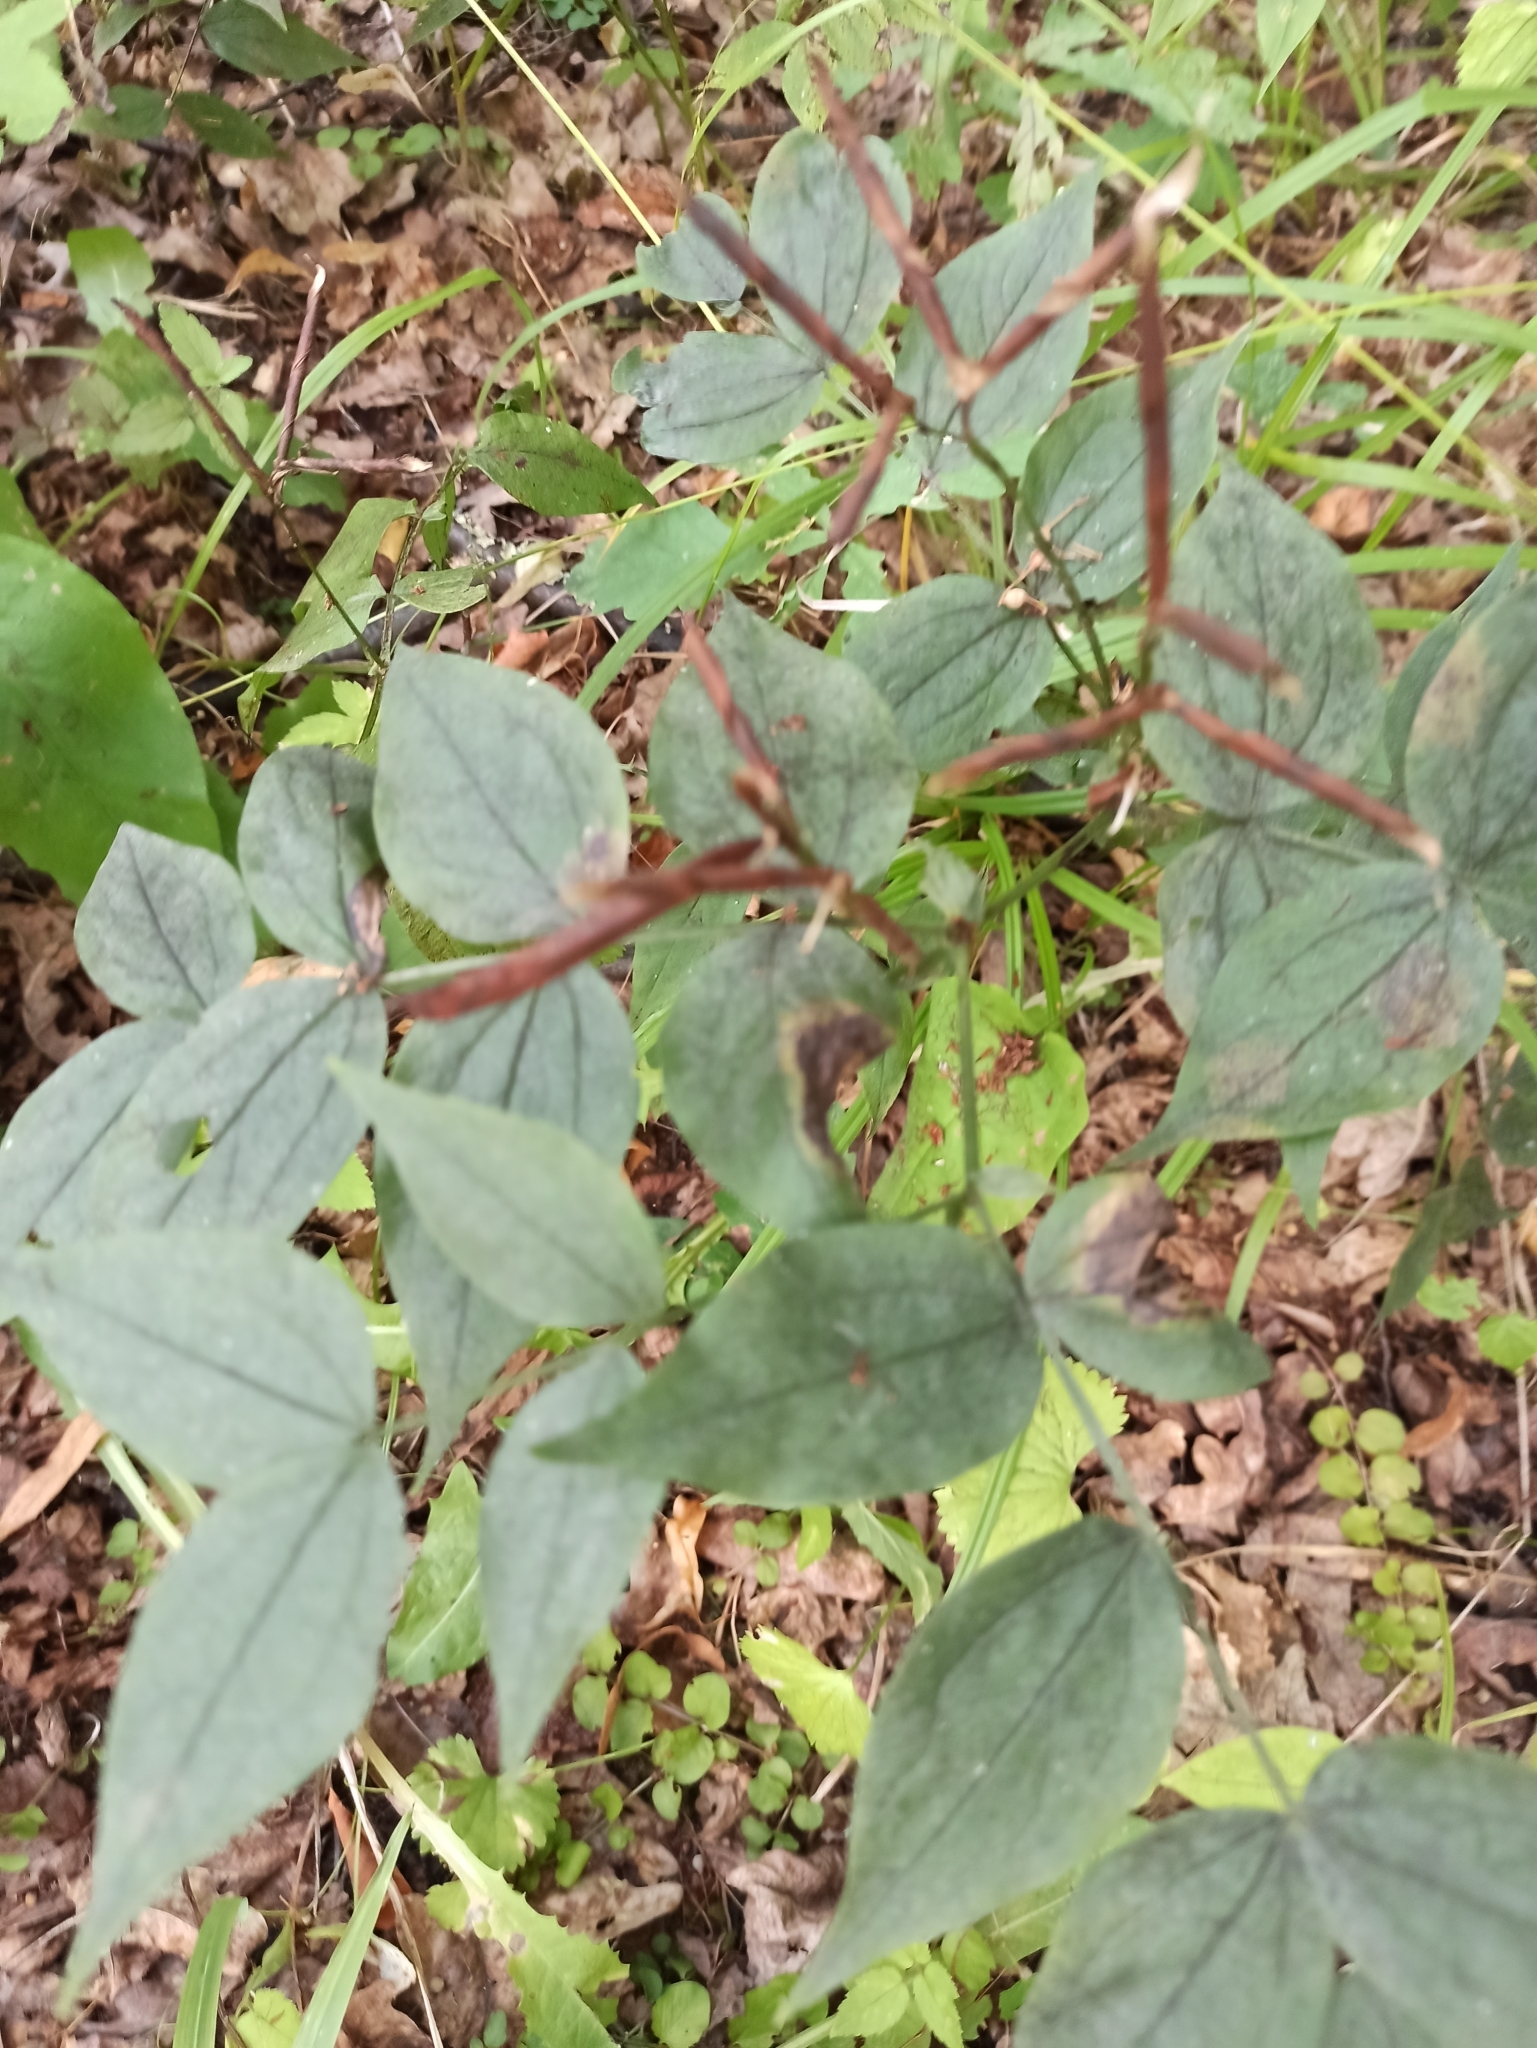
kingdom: Plantae
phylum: Tracheophyta
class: Magnoliopsida
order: Fabales
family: Fabaceae
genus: Lathyrus
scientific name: Lathyrus vernus
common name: Spring pea
